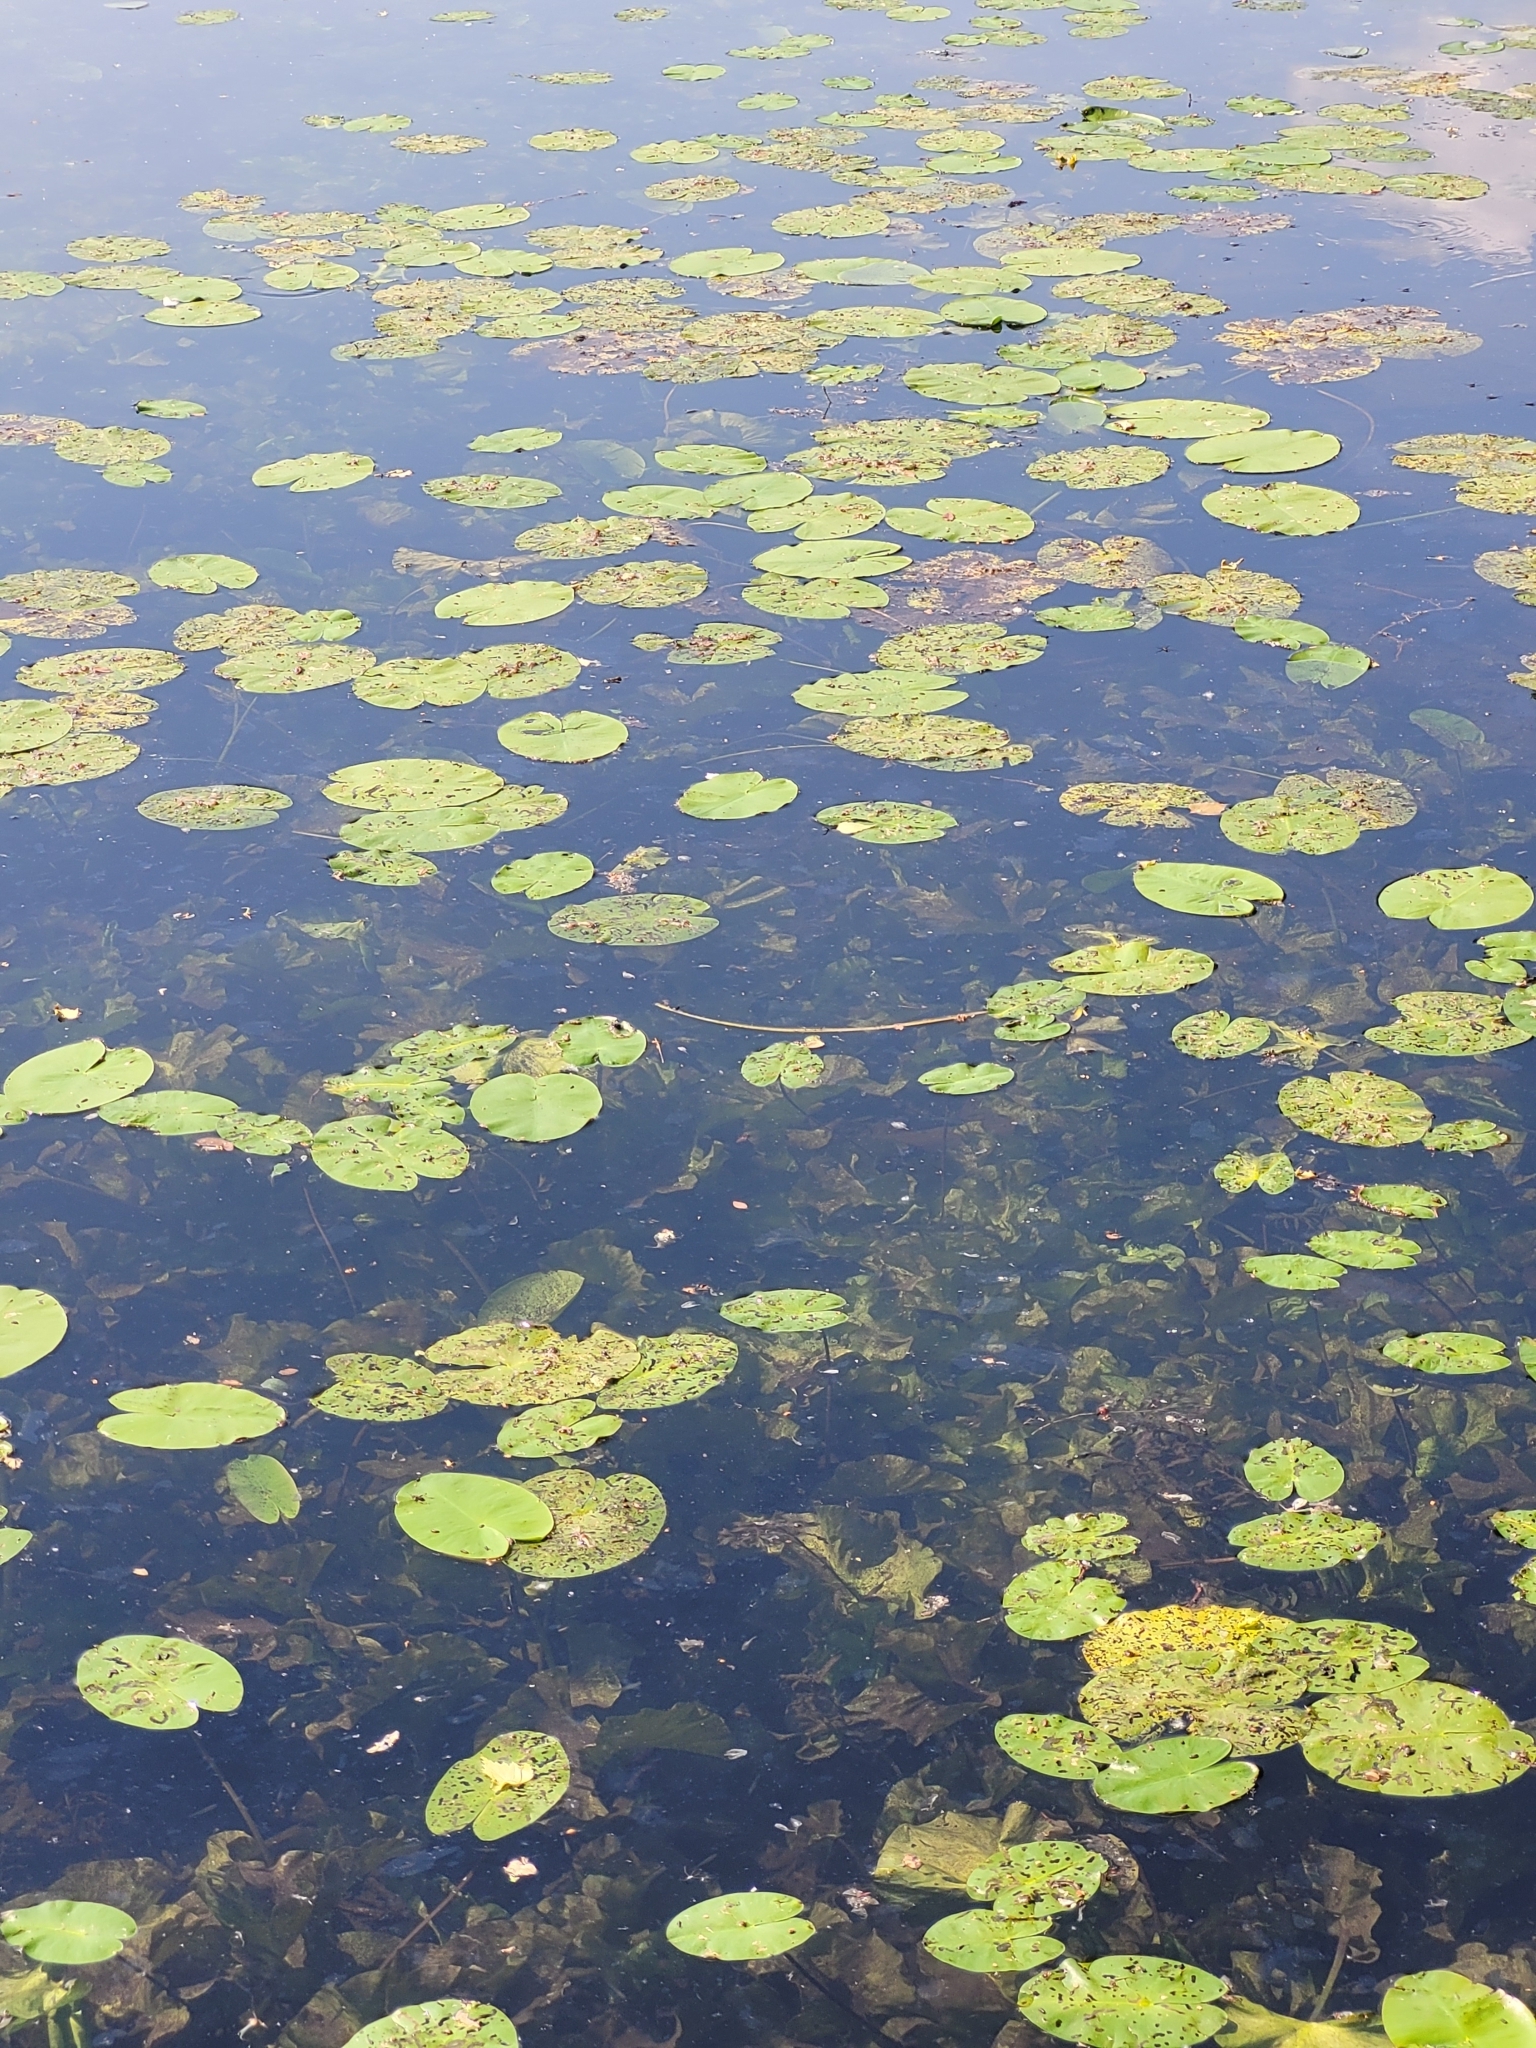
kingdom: Plantae
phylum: Tracheophyta
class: Magnoliopsida
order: Nymphaeales
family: Nymphaeaceae
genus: Nuphar
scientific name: Nuphar lutea
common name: Yellow water-lily
